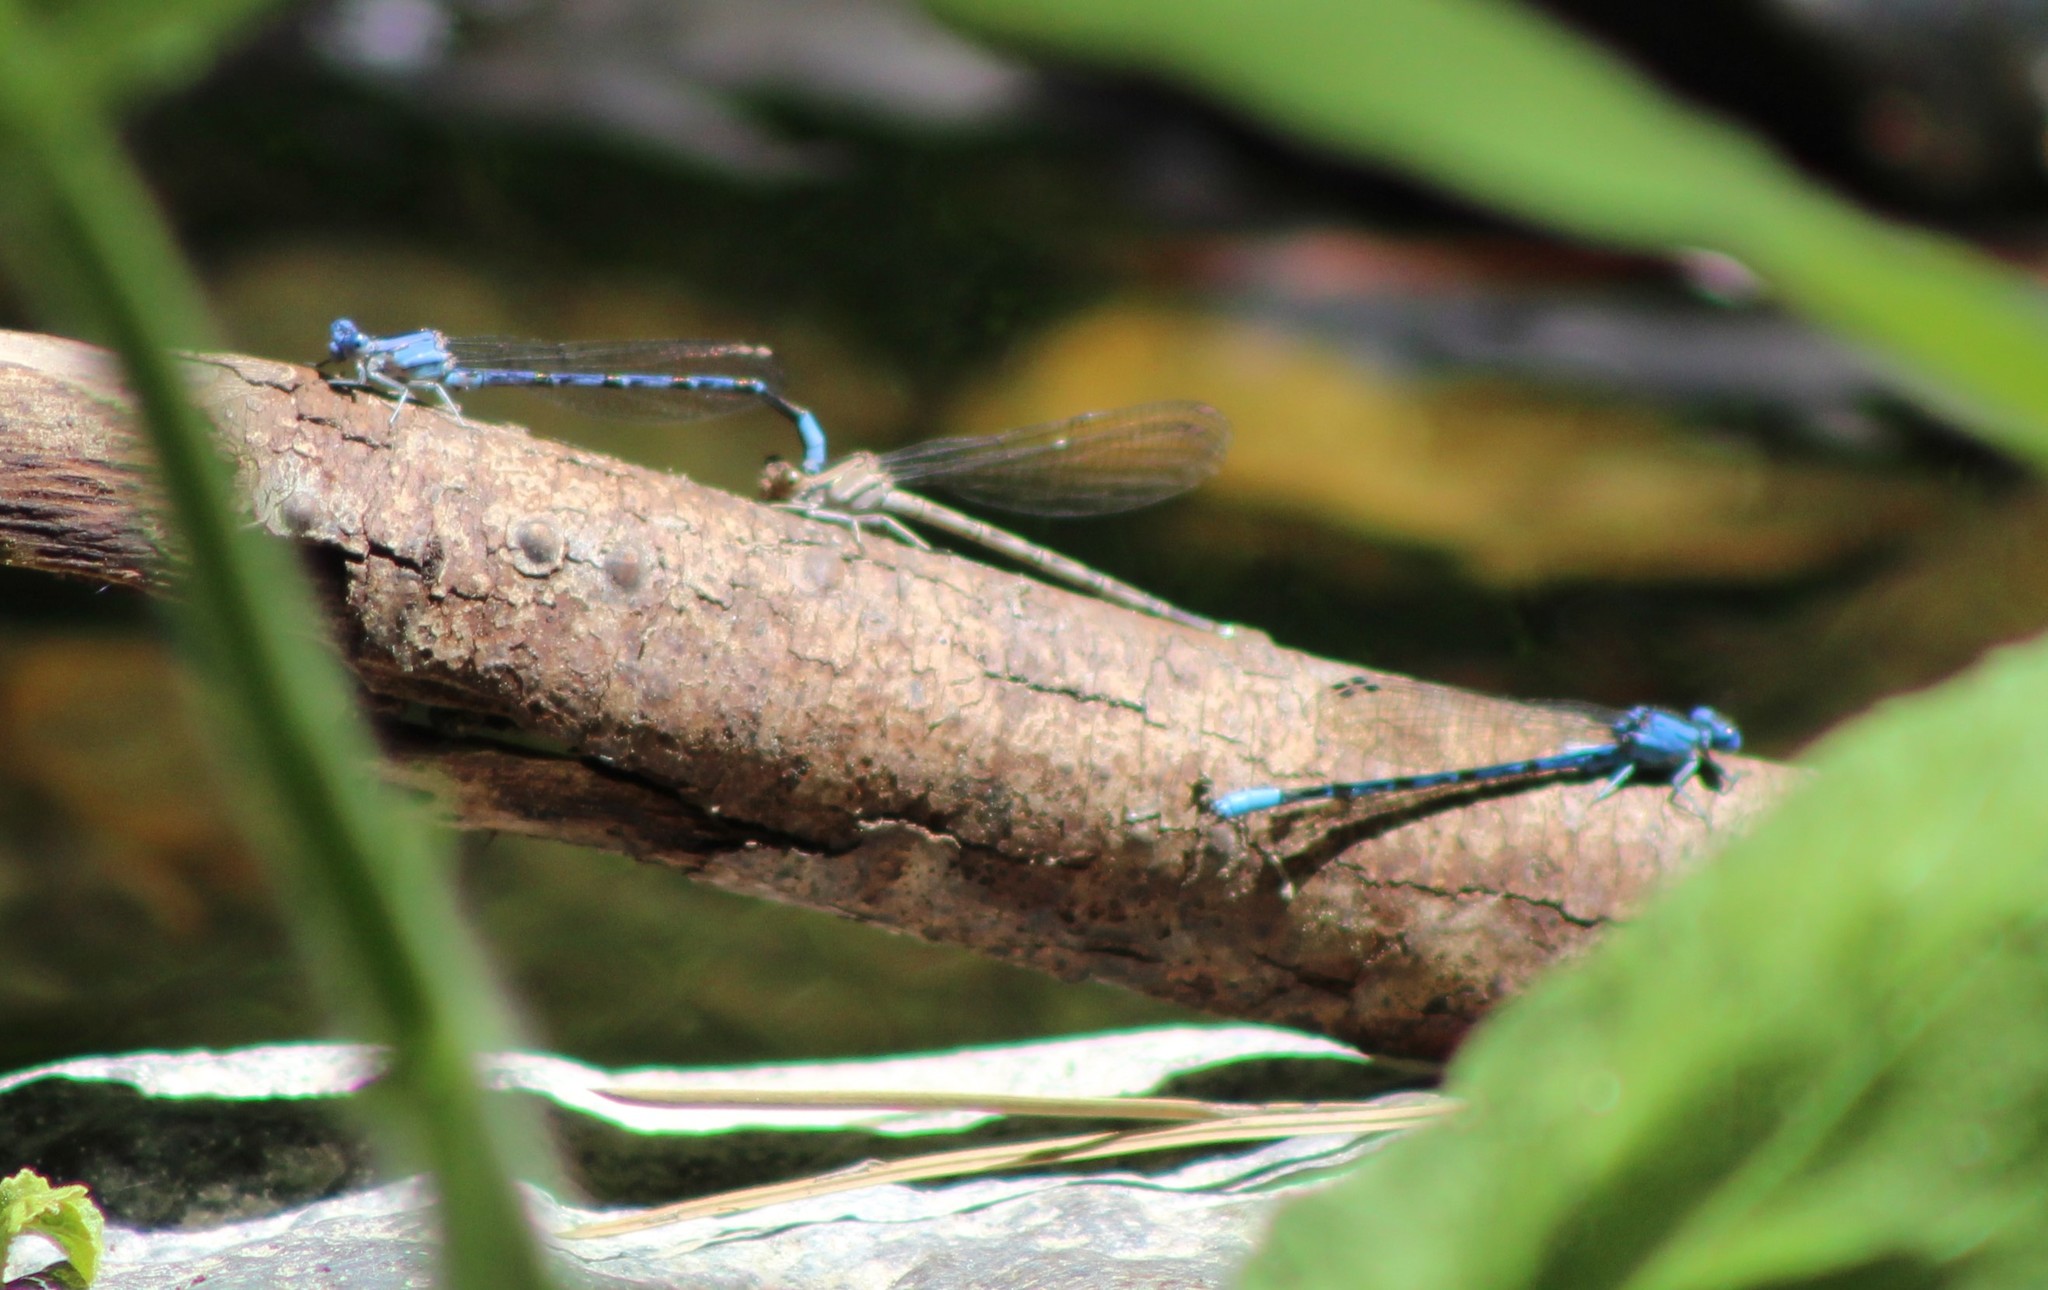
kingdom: Animalia
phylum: Arthropoda
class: Insecta
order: Odonata
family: Coenagrionidae
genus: Argia
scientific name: Argia vivida
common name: Vivid dancer
